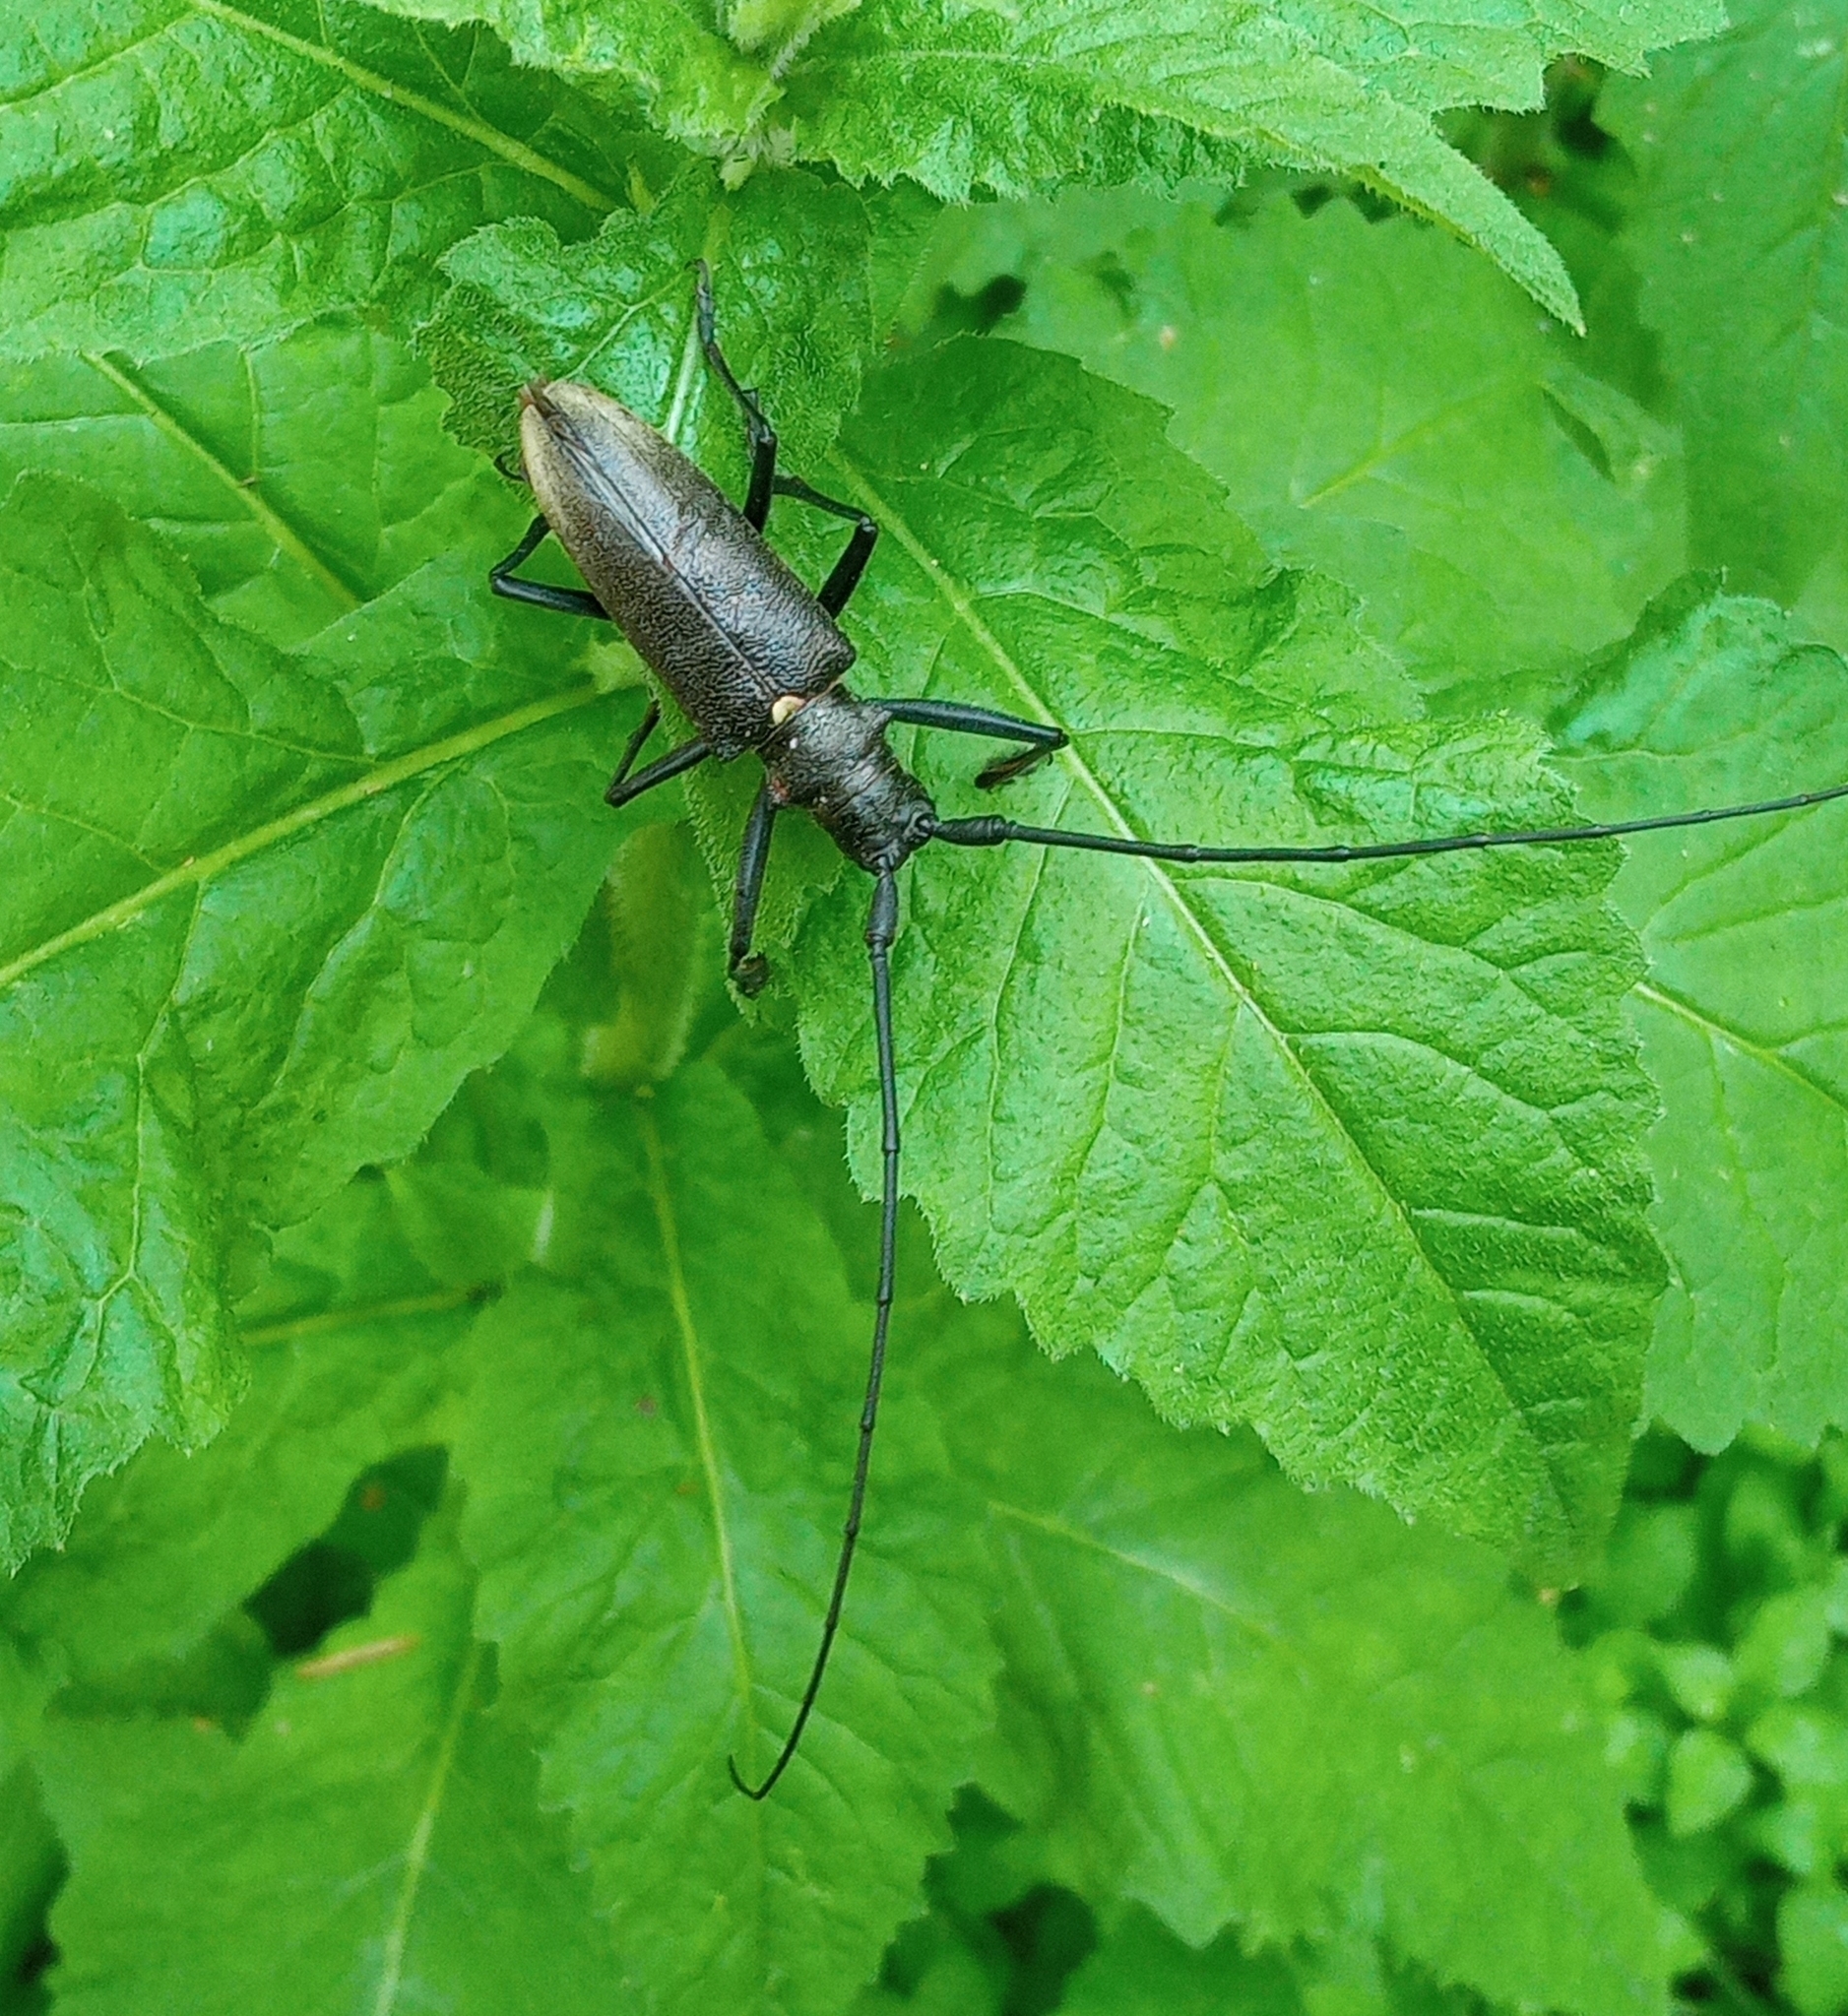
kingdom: Animalia
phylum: Arthropoda
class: Insecta
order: Coleoptera
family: Cerambycidae
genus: Monochamus
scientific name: Monochamus sartor
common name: Pine sawyer
